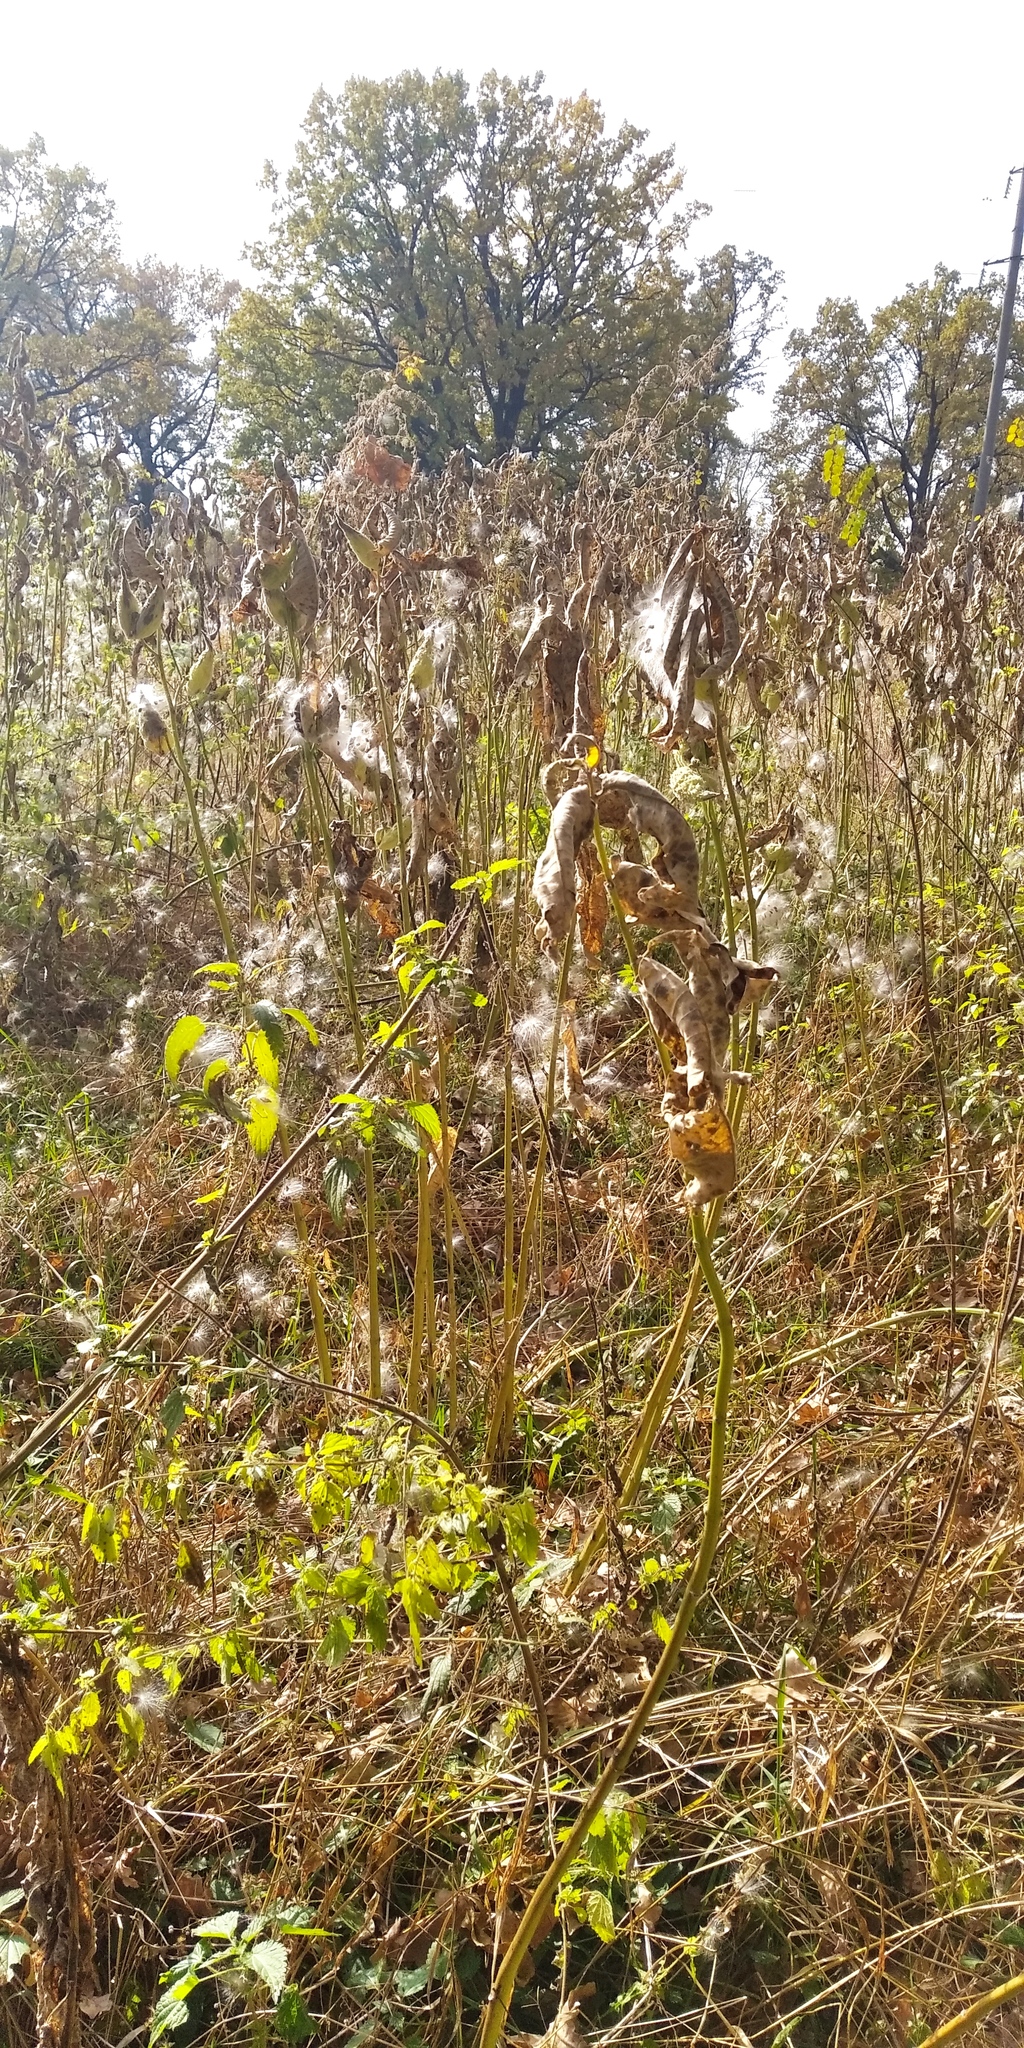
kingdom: Plantae
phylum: Tracheophyta
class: Magnoliopsida
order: Gentianales
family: Apocynaceae
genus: Asclepias
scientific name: Asclepias syriaca
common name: Common milkweed
